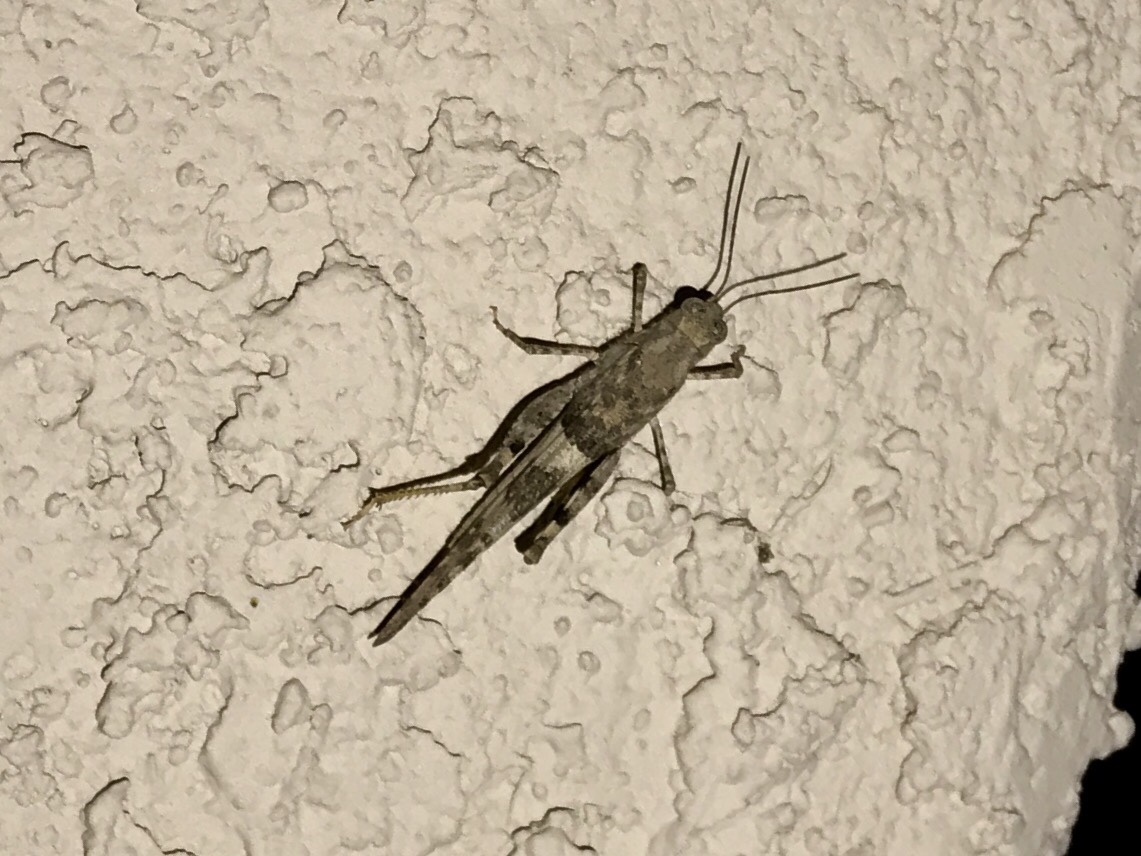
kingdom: Animalia
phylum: Arthropoda
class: Insecta
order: Orthoptera
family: Acrididae
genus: Trimerotropis
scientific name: Trimerotropis pallidipennis
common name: Pallid-winged grasshopper
